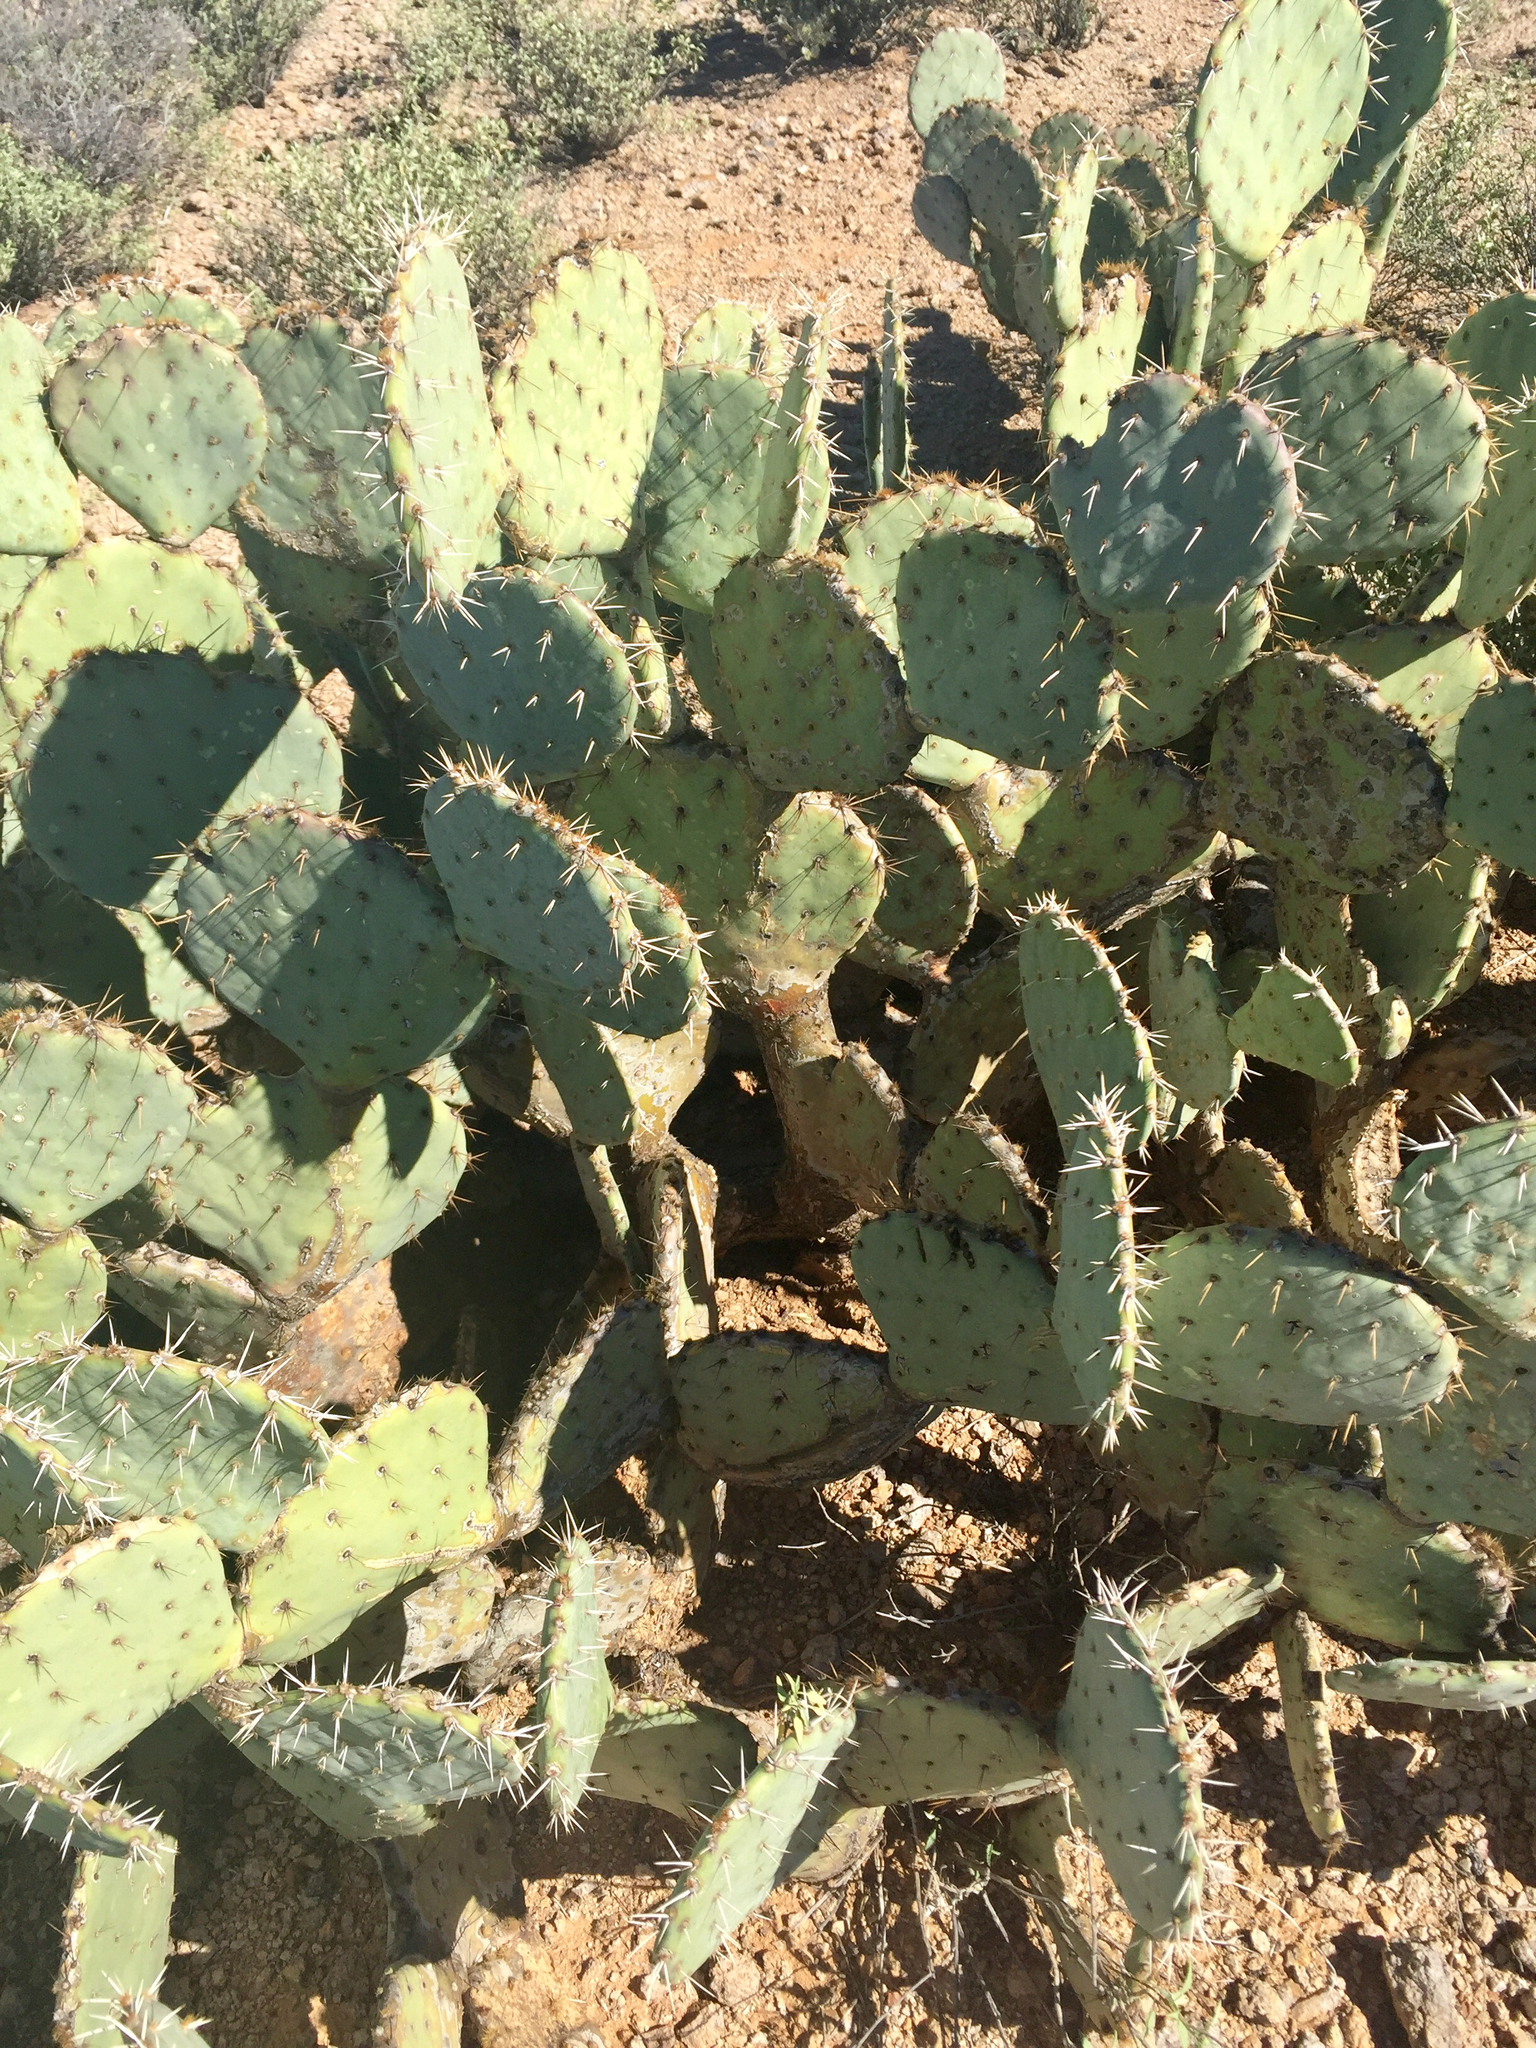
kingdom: Plantae
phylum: Tracheophyta
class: Magnoliopsida
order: Caryophyllales
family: Cactaceae
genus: Opuntia
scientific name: Opuntia engelmannii
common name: Cactus-apple
